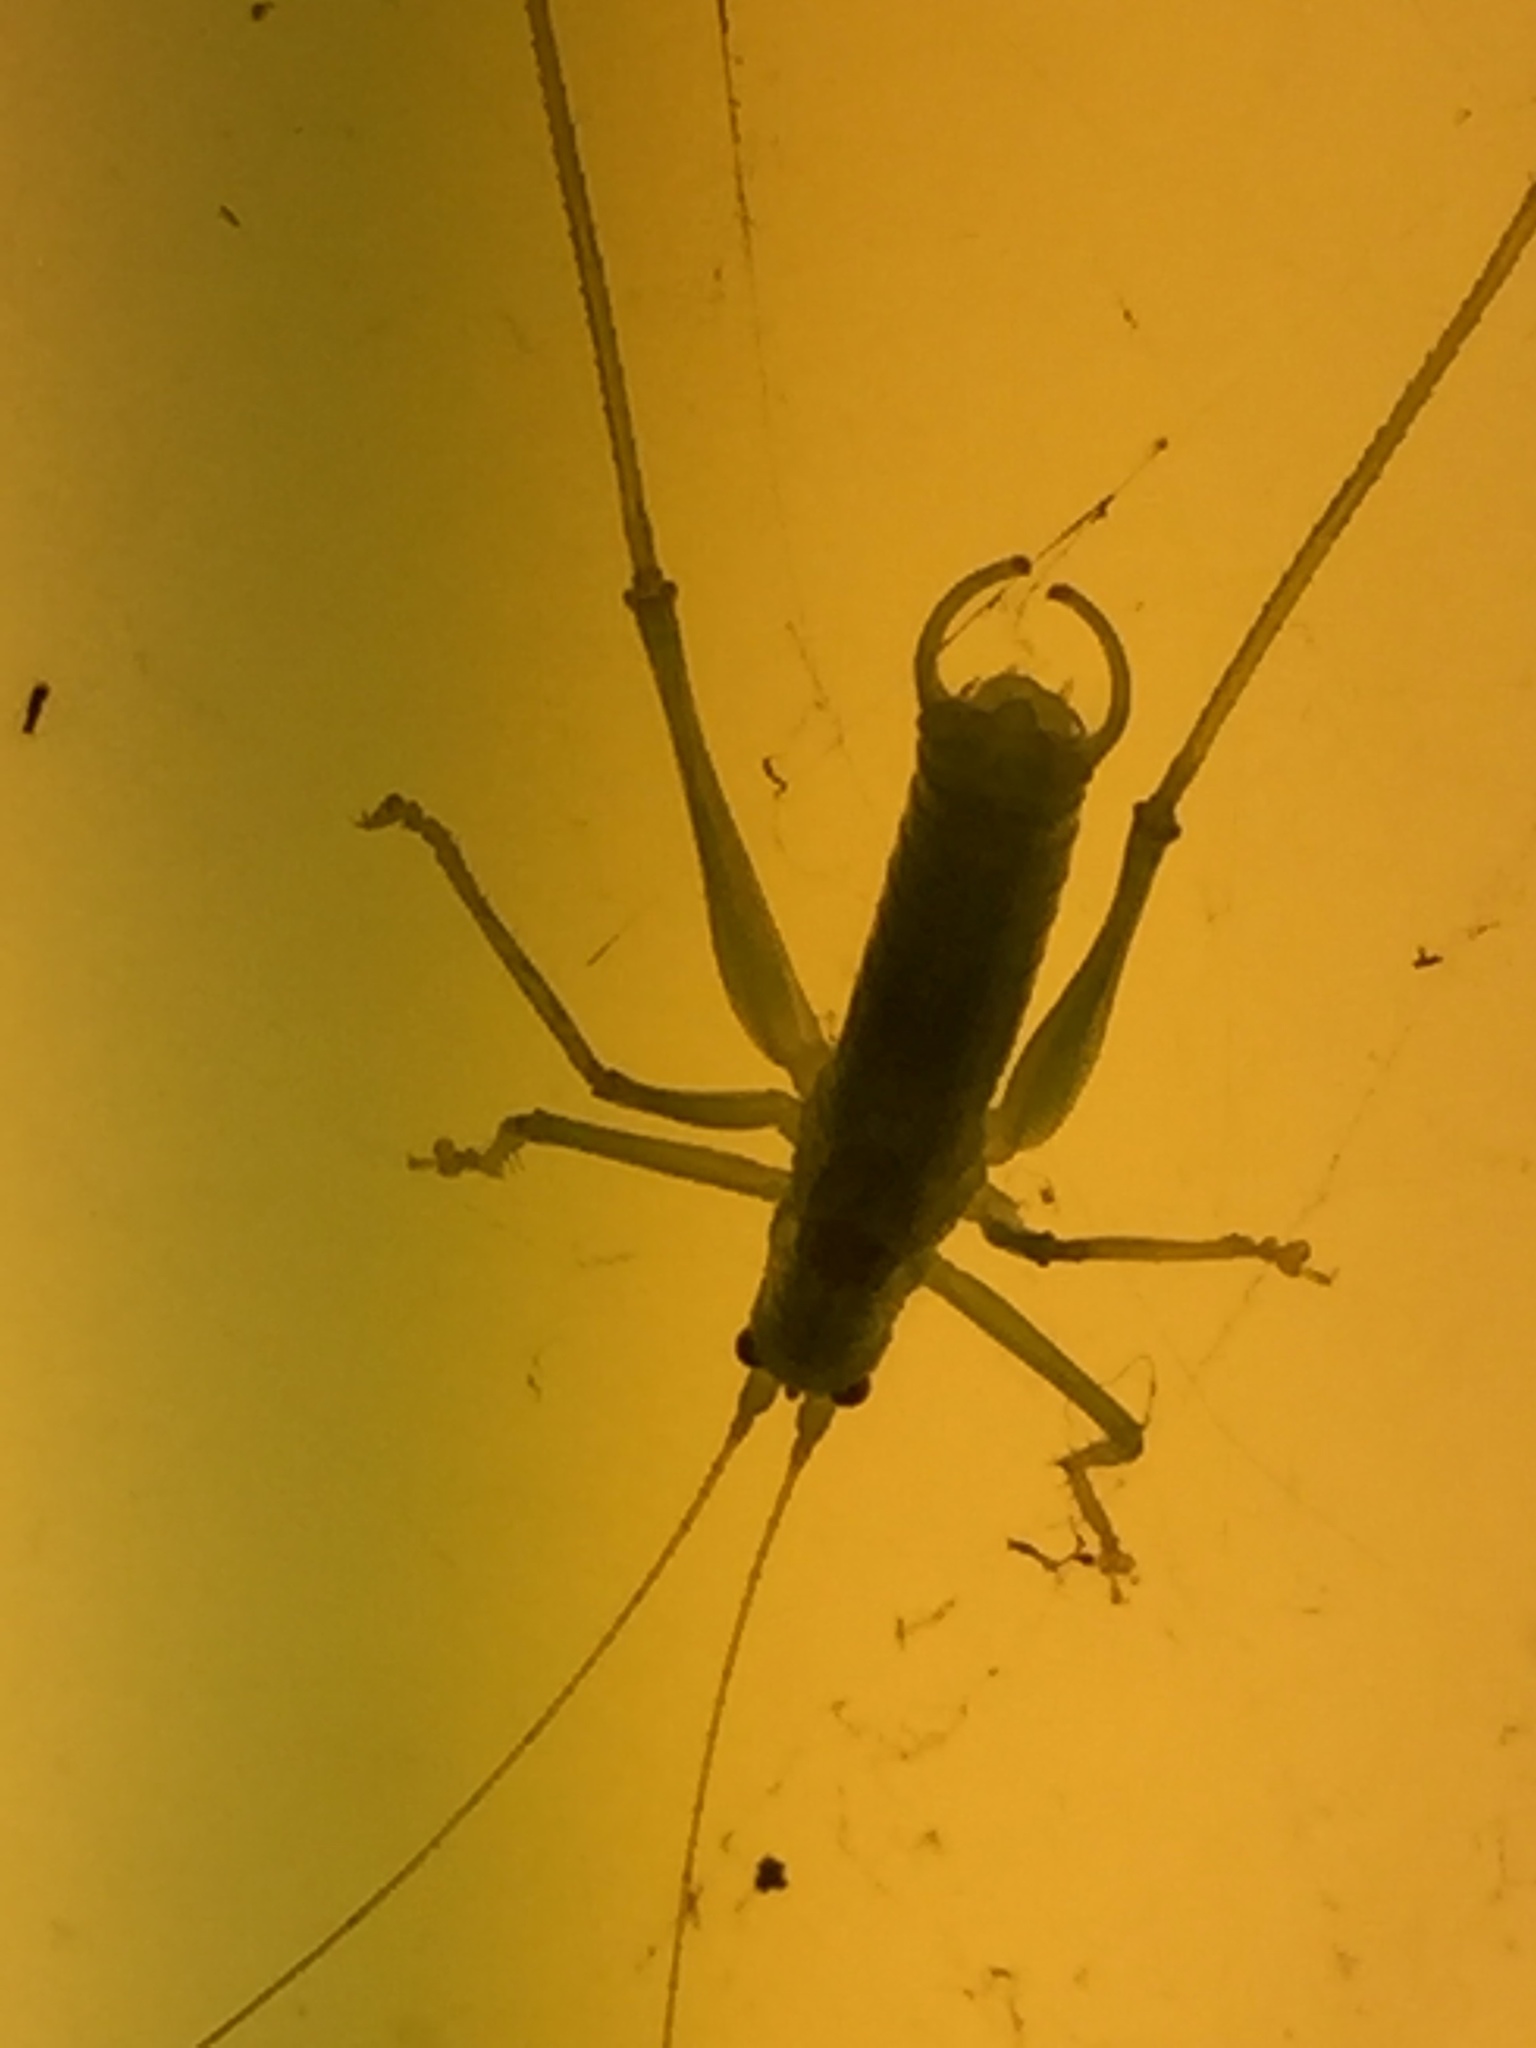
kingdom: Animalia
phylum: Arthropoda
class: Insecta
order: Orthoptera
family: Tettigoniidae
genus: Meconema
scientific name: Meconema meridionale
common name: Southern oak bush-cricket
